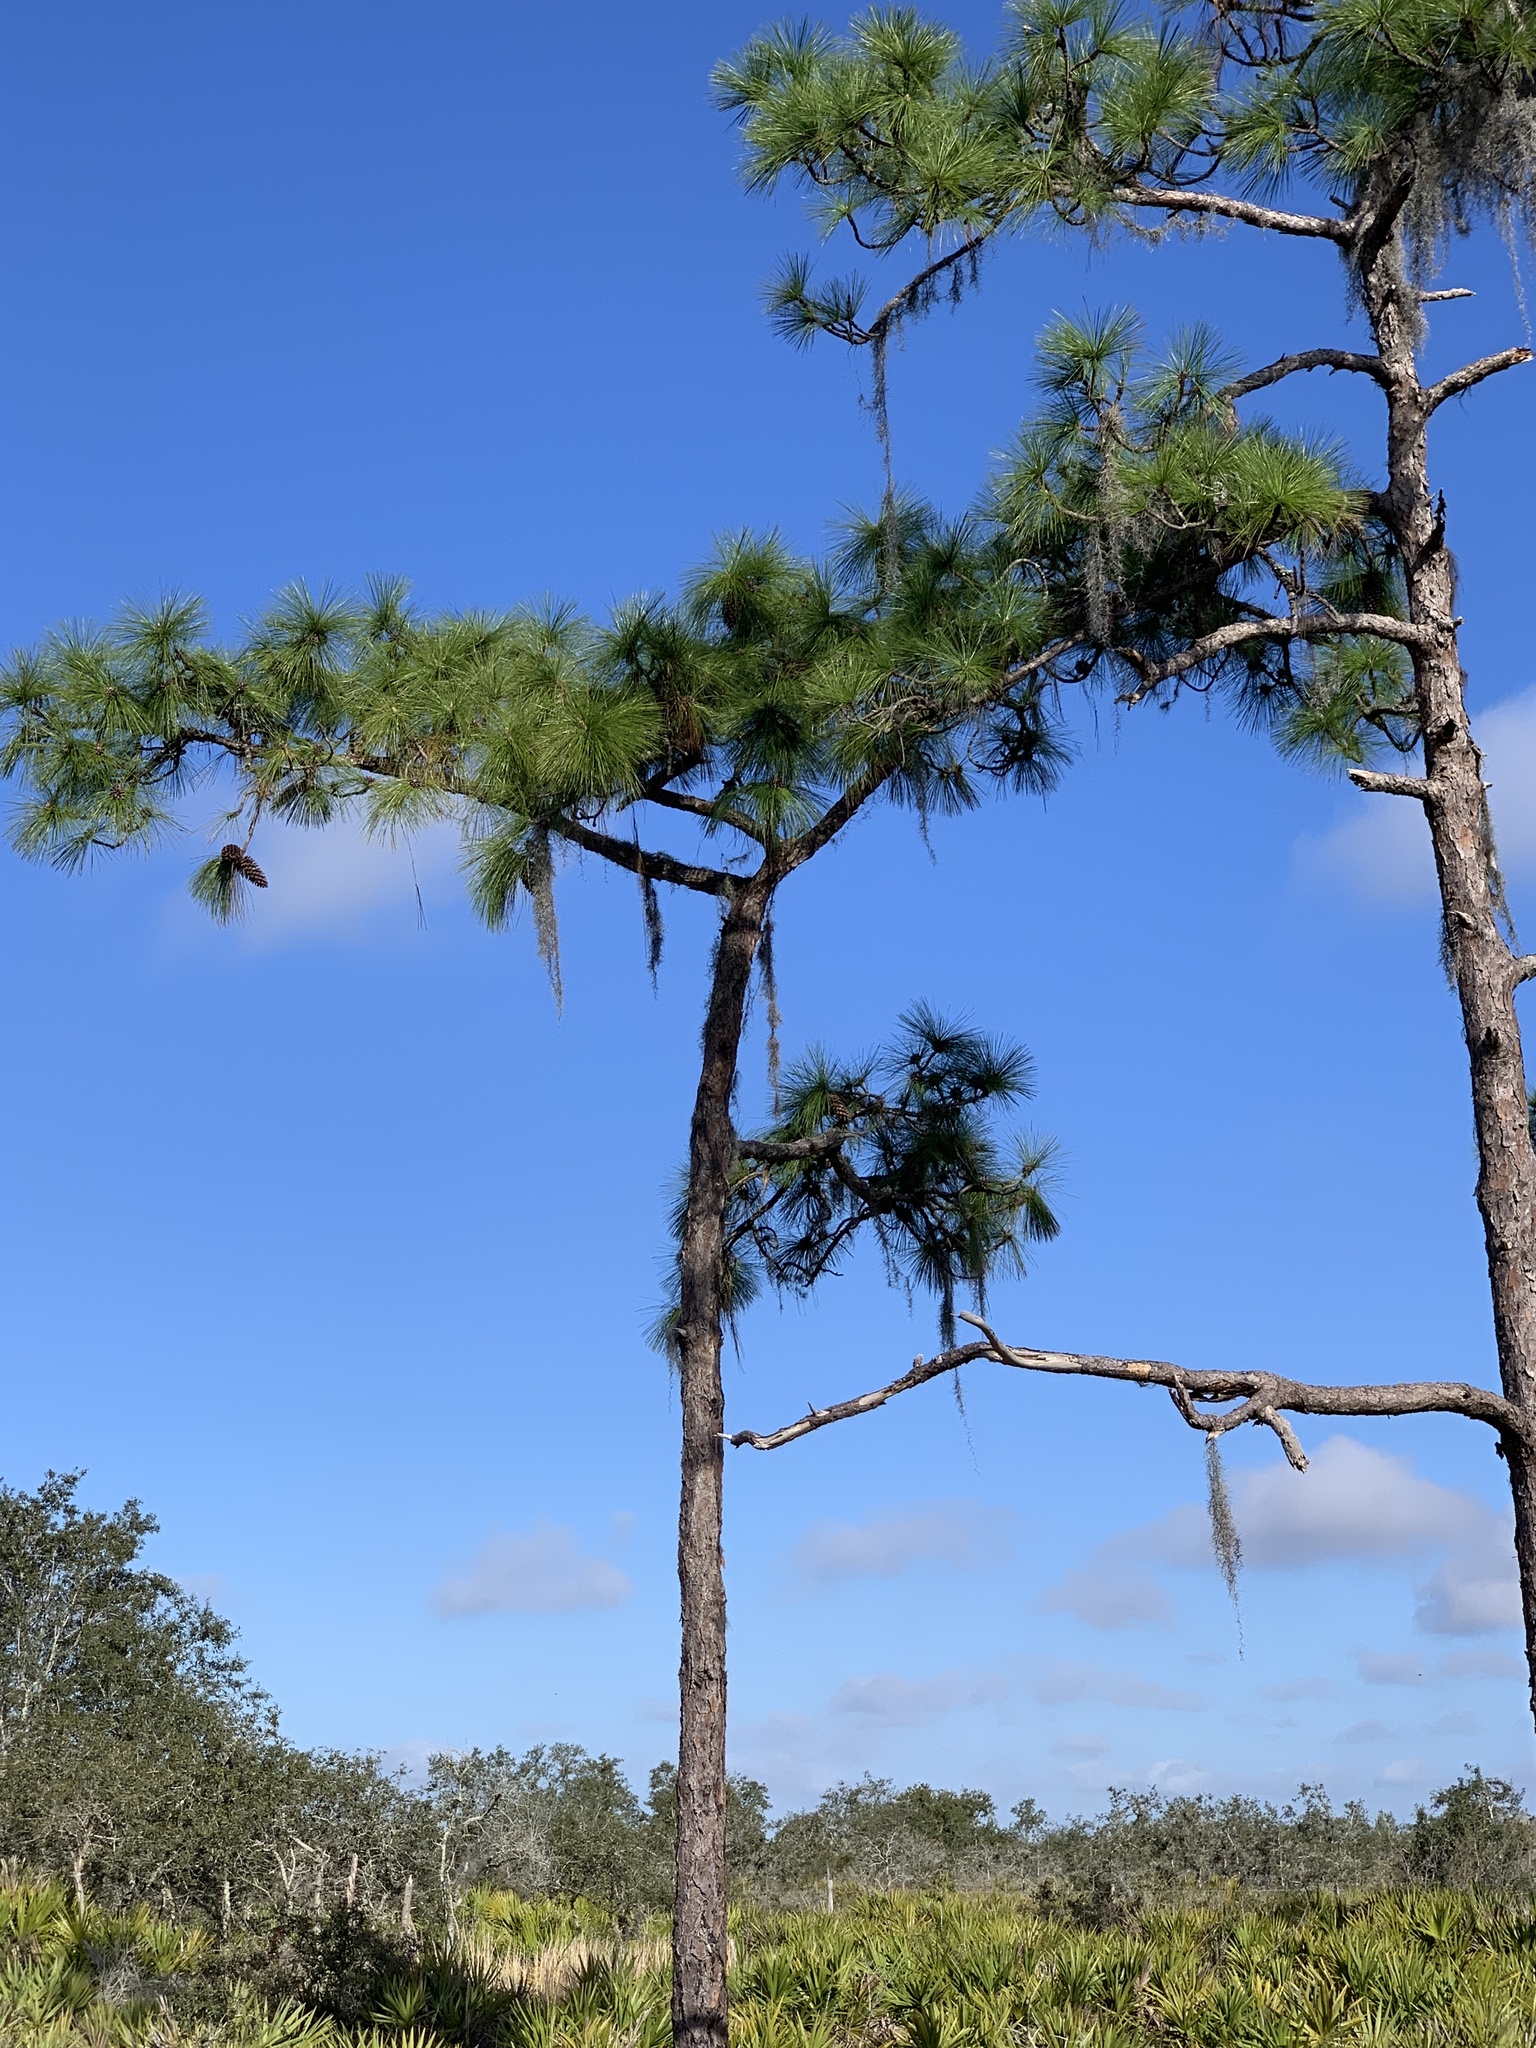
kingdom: Plantae
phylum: Tracheophyta
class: Pinopsida
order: Pinales
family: Pinaceae
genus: Pinus
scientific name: Pinus palustris
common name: Longleaf pine
